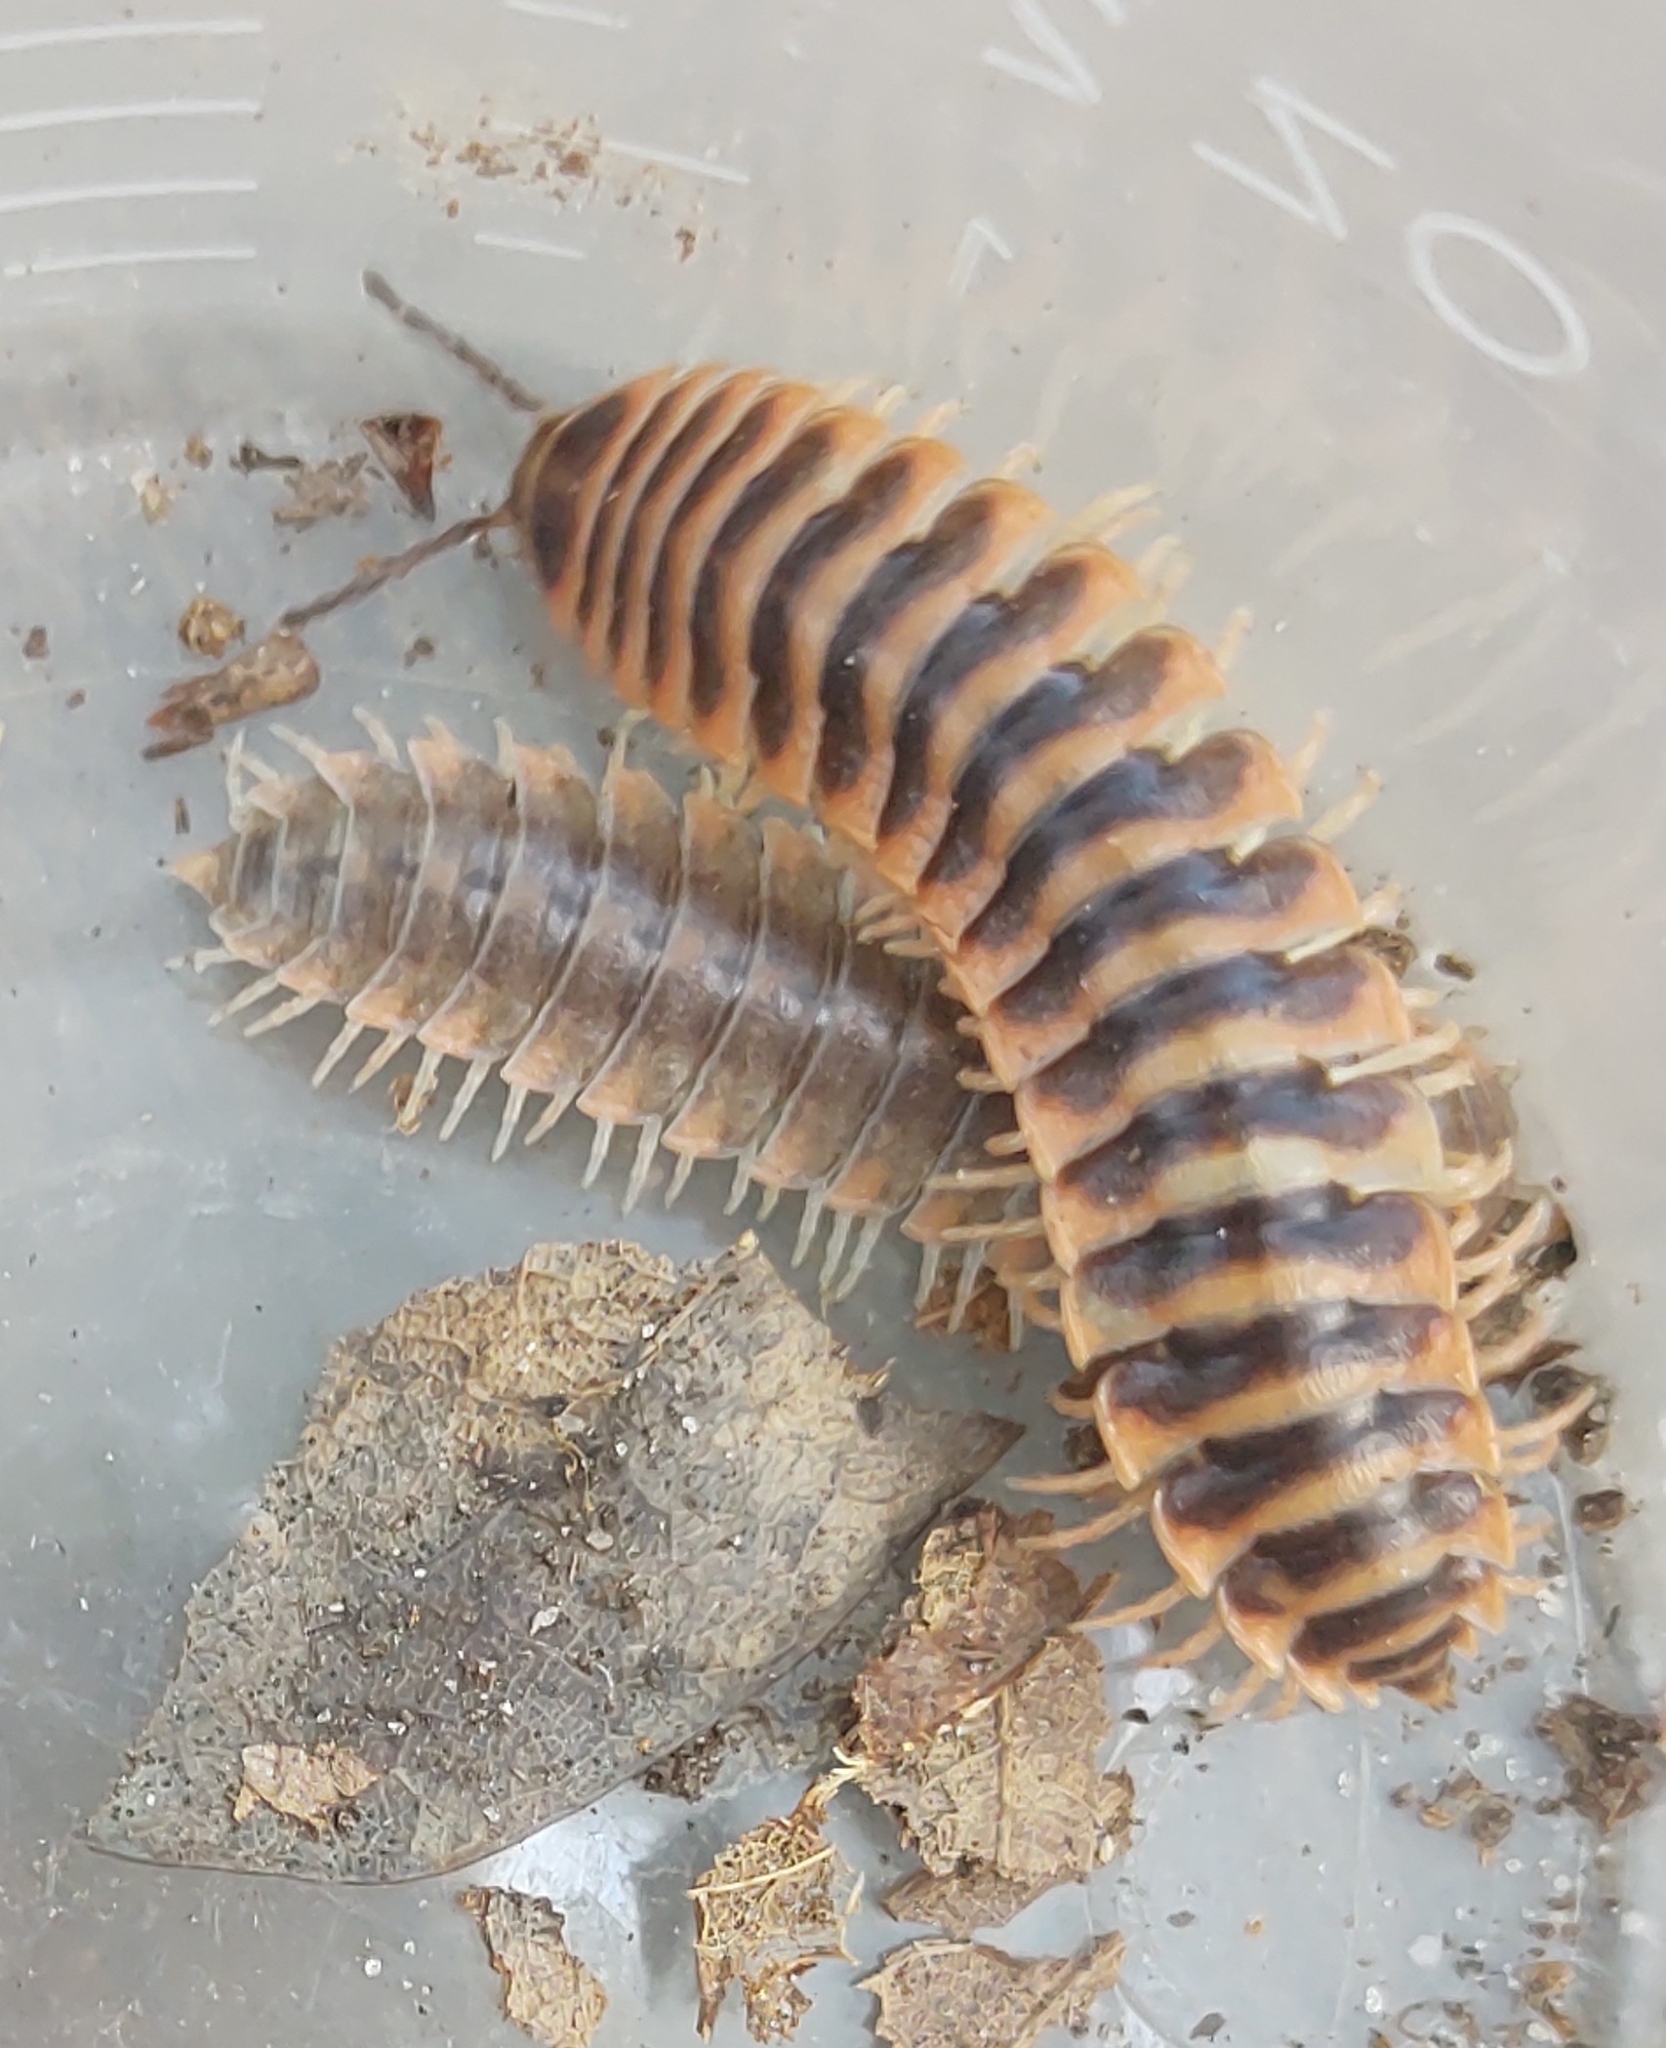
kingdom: Animalia
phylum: Arthropoda
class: Diplopoda
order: Polydesmida
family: Xystodesmidae
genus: Cherokia
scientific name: Cherokia georgiana
